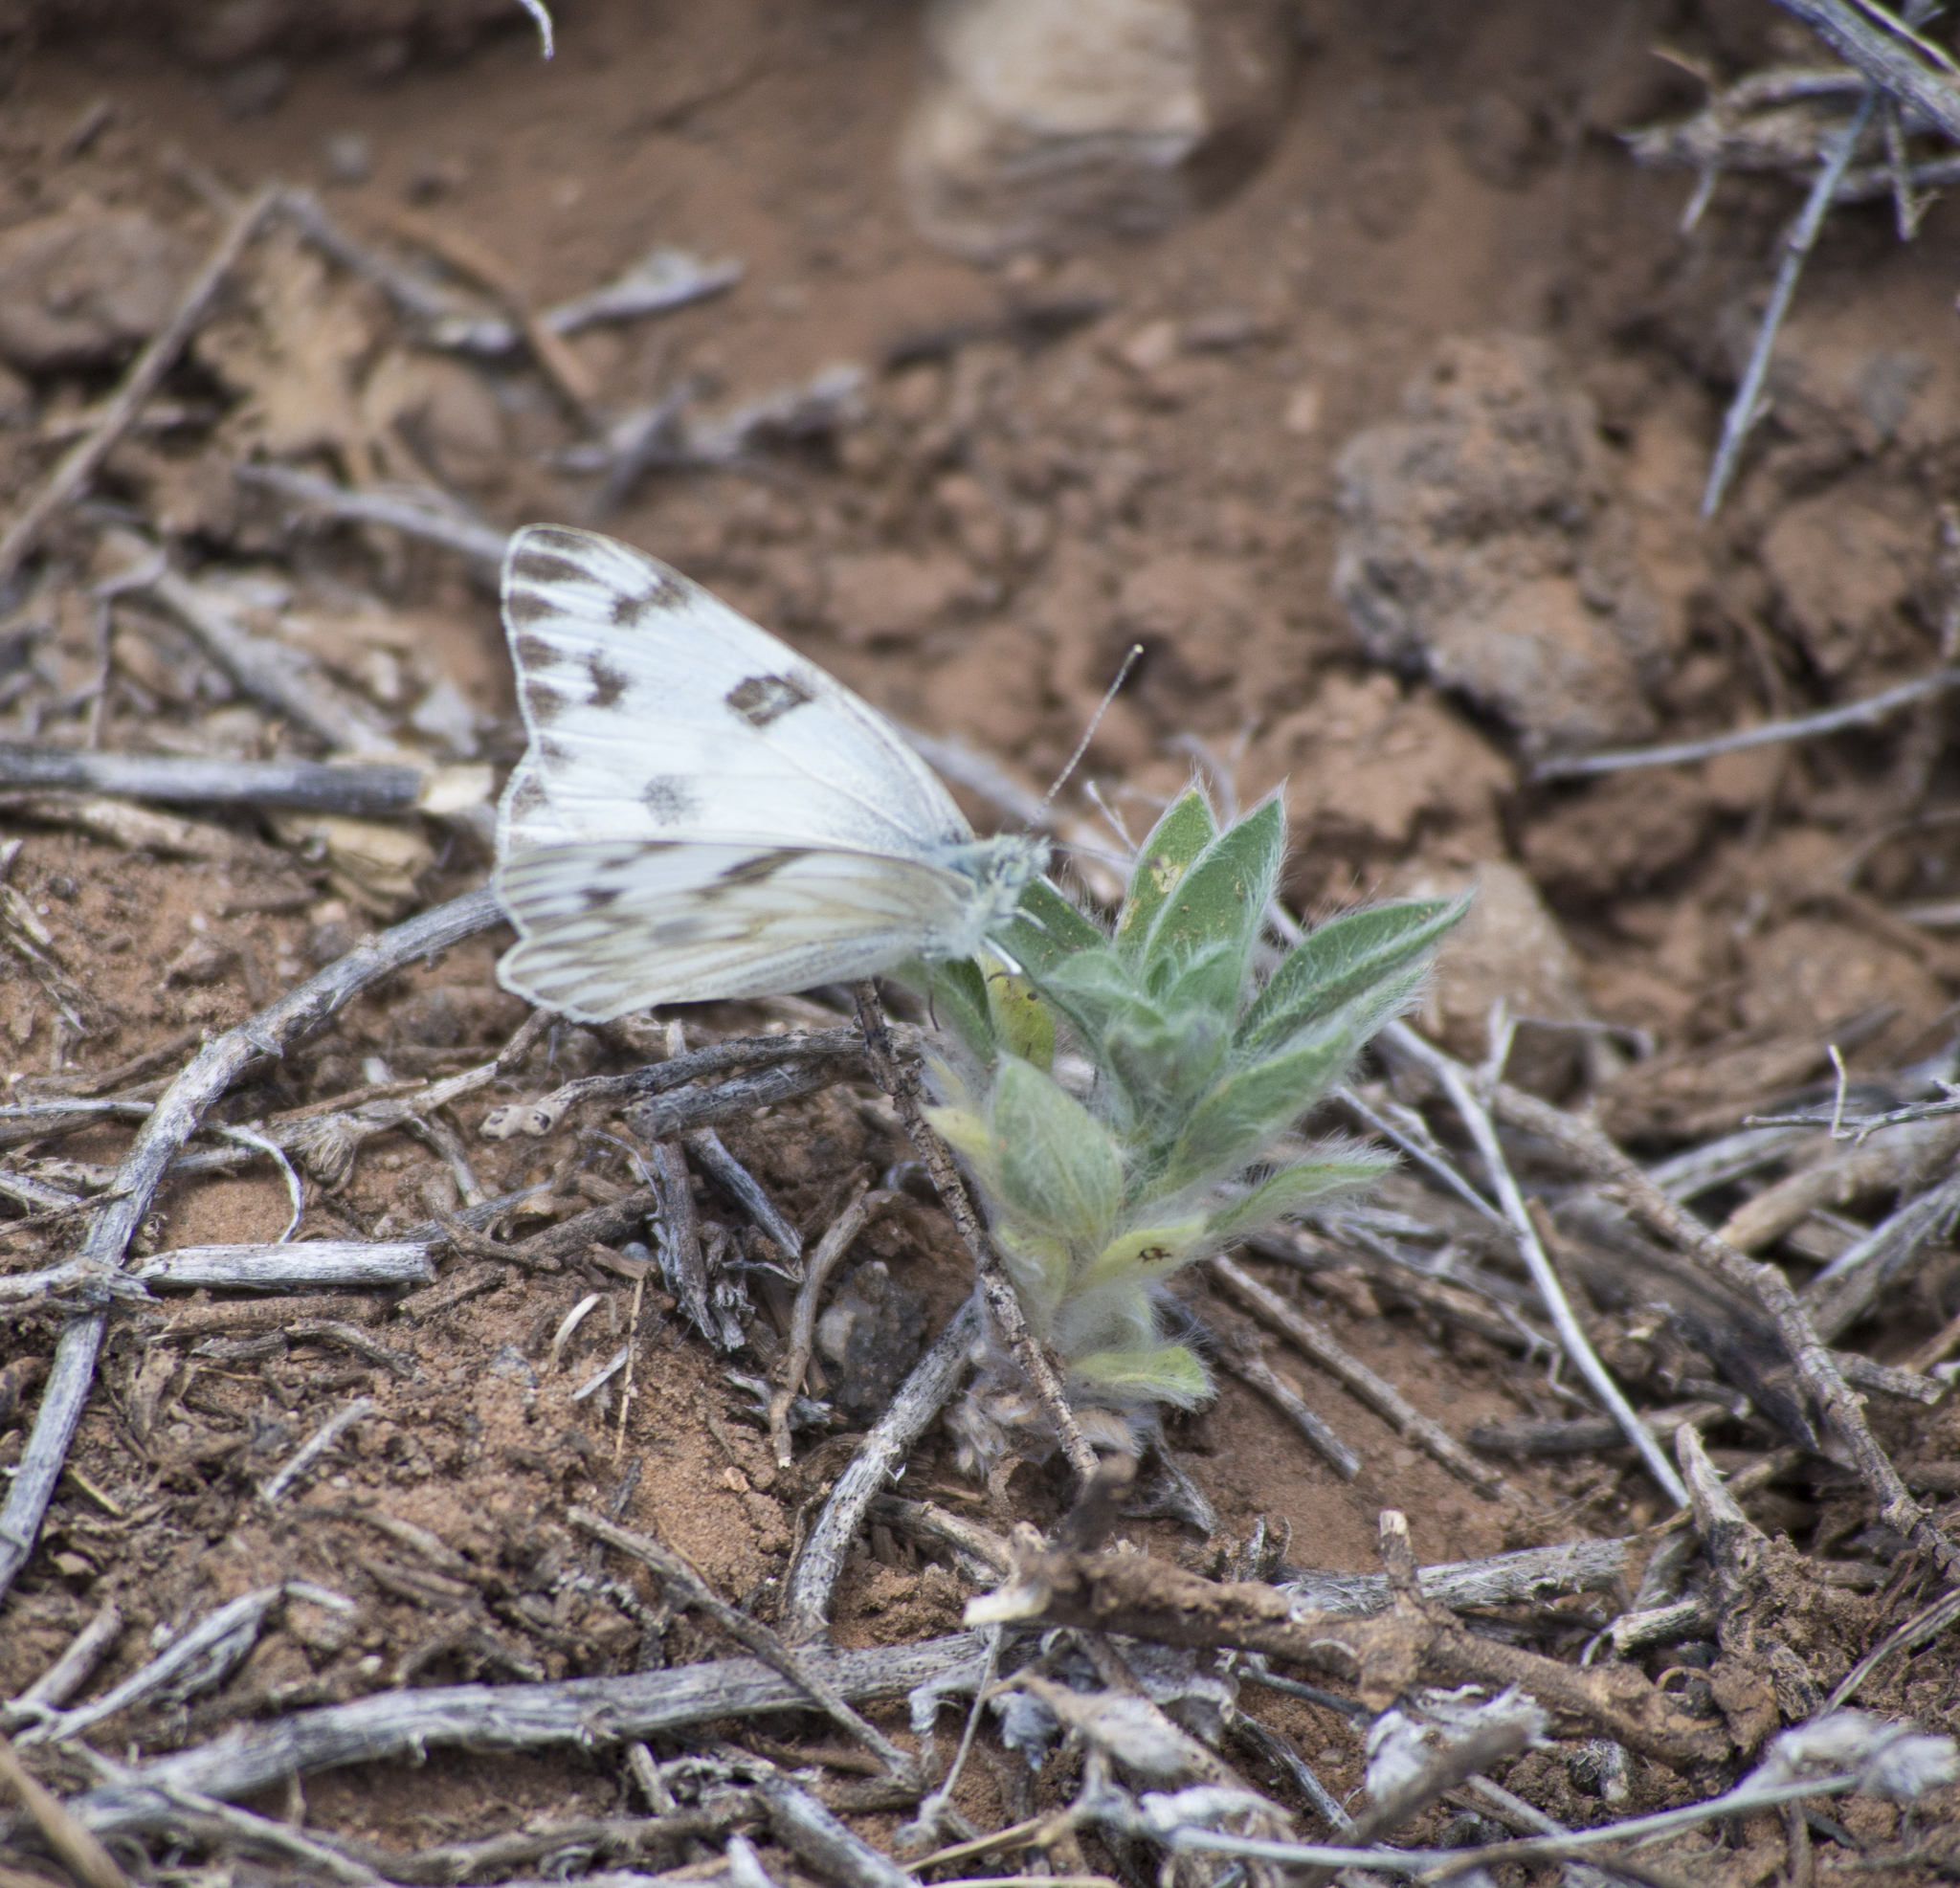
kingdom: Animalia
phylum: Arthropoda
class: Insecta
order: Lepidoptera
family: Pieridae
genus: Pontia
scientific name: Pontia protodice
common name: Checkered white
